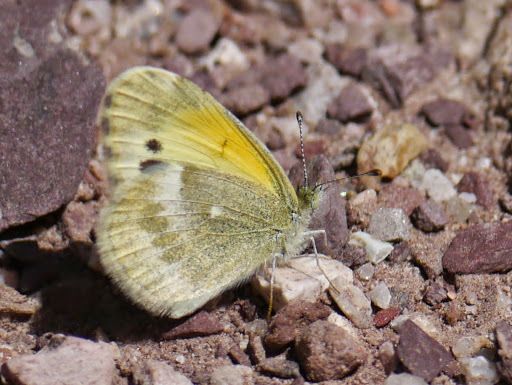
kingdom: Animalia
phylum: Arthropoda
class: Insecta
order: Lepidoptera
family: Pieridae
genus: Nathalis
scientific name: Nathalis iole
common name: Dainty sulphur
